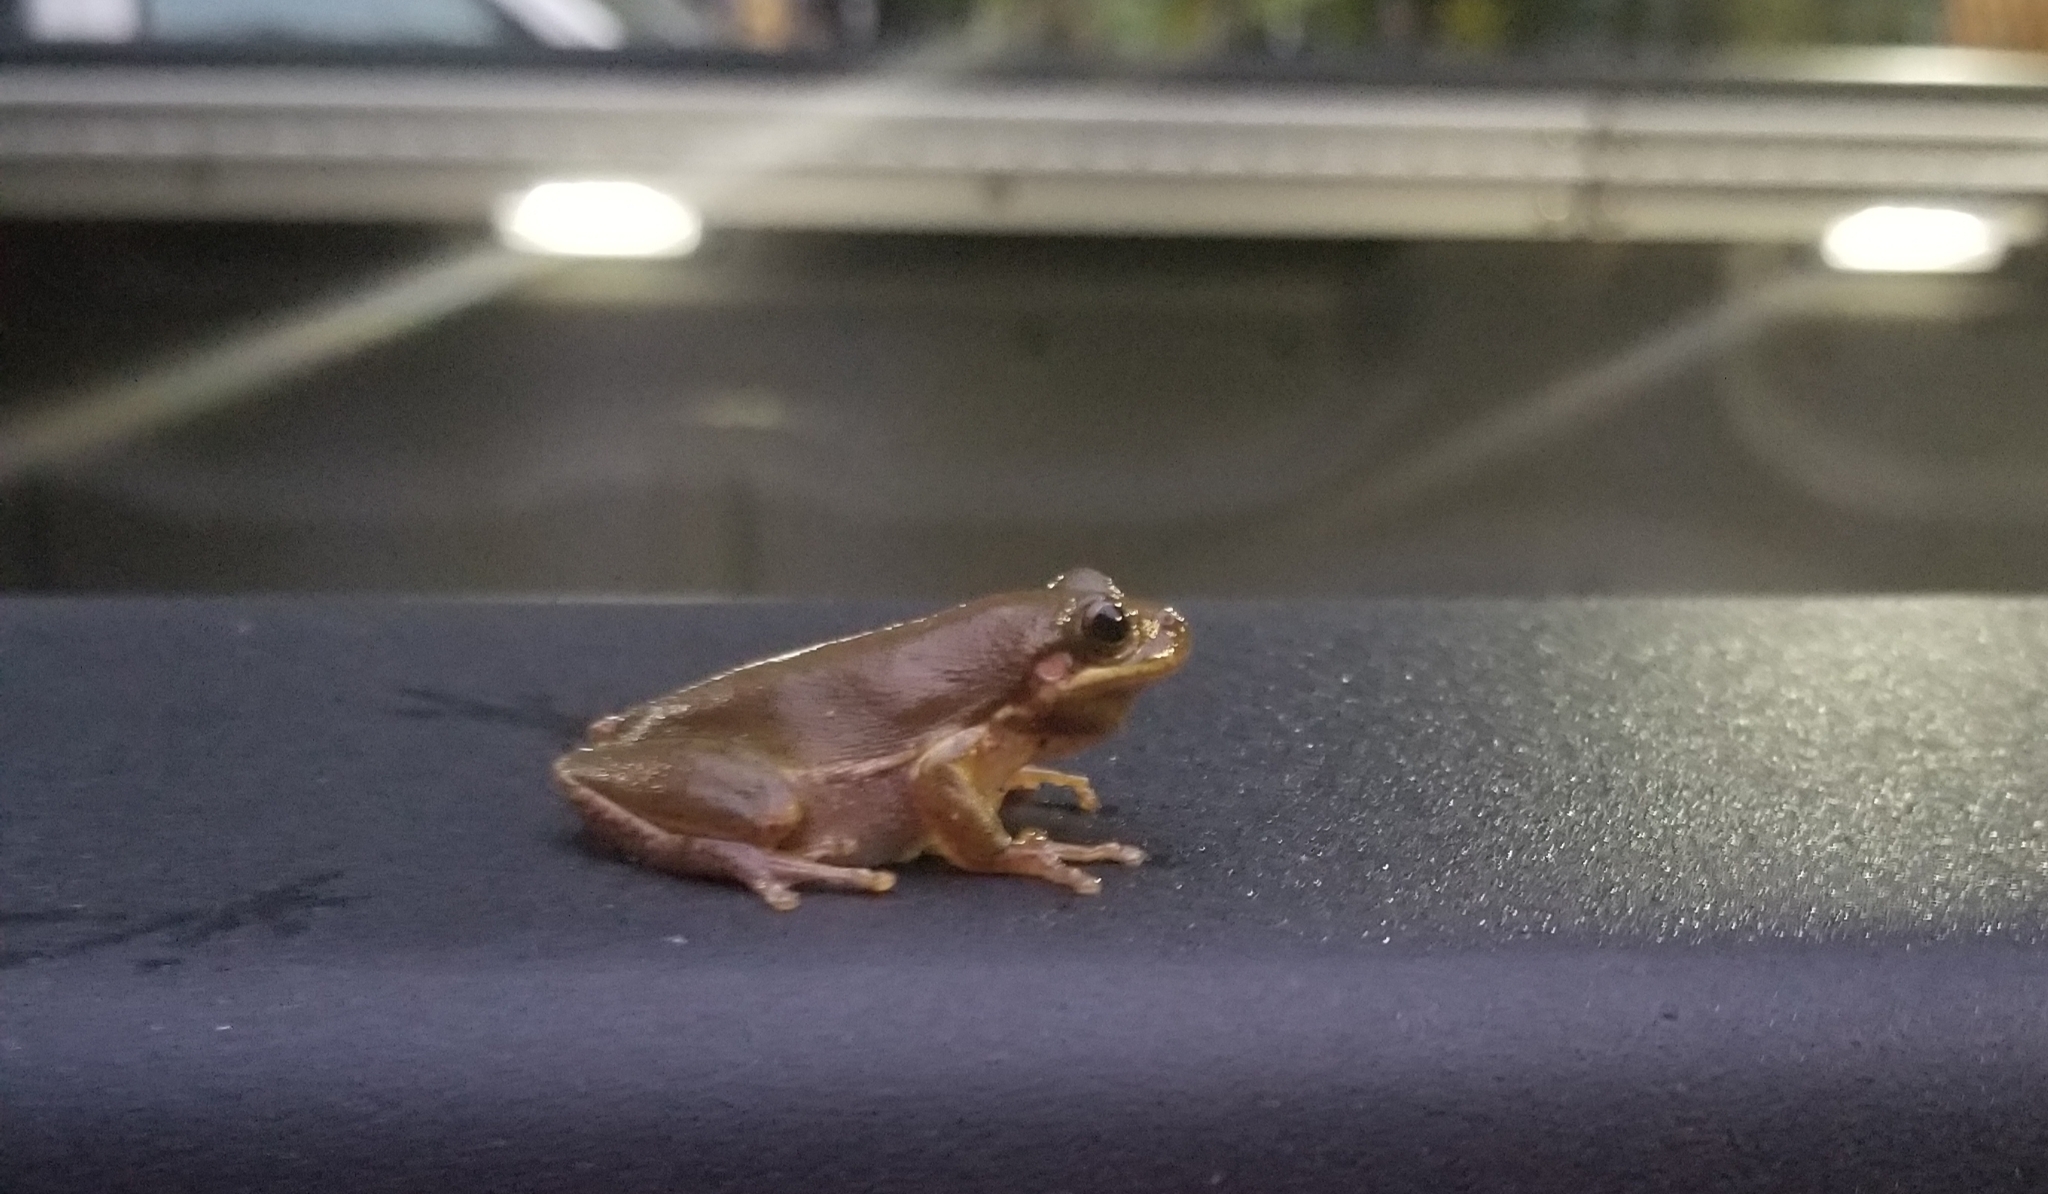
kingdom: Animalia
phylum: Chordata
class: Amphibia
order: Anura
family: Hylidae
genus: Dryophytes
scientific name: Dryophytes squirellus
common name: Squirrel treefrog
